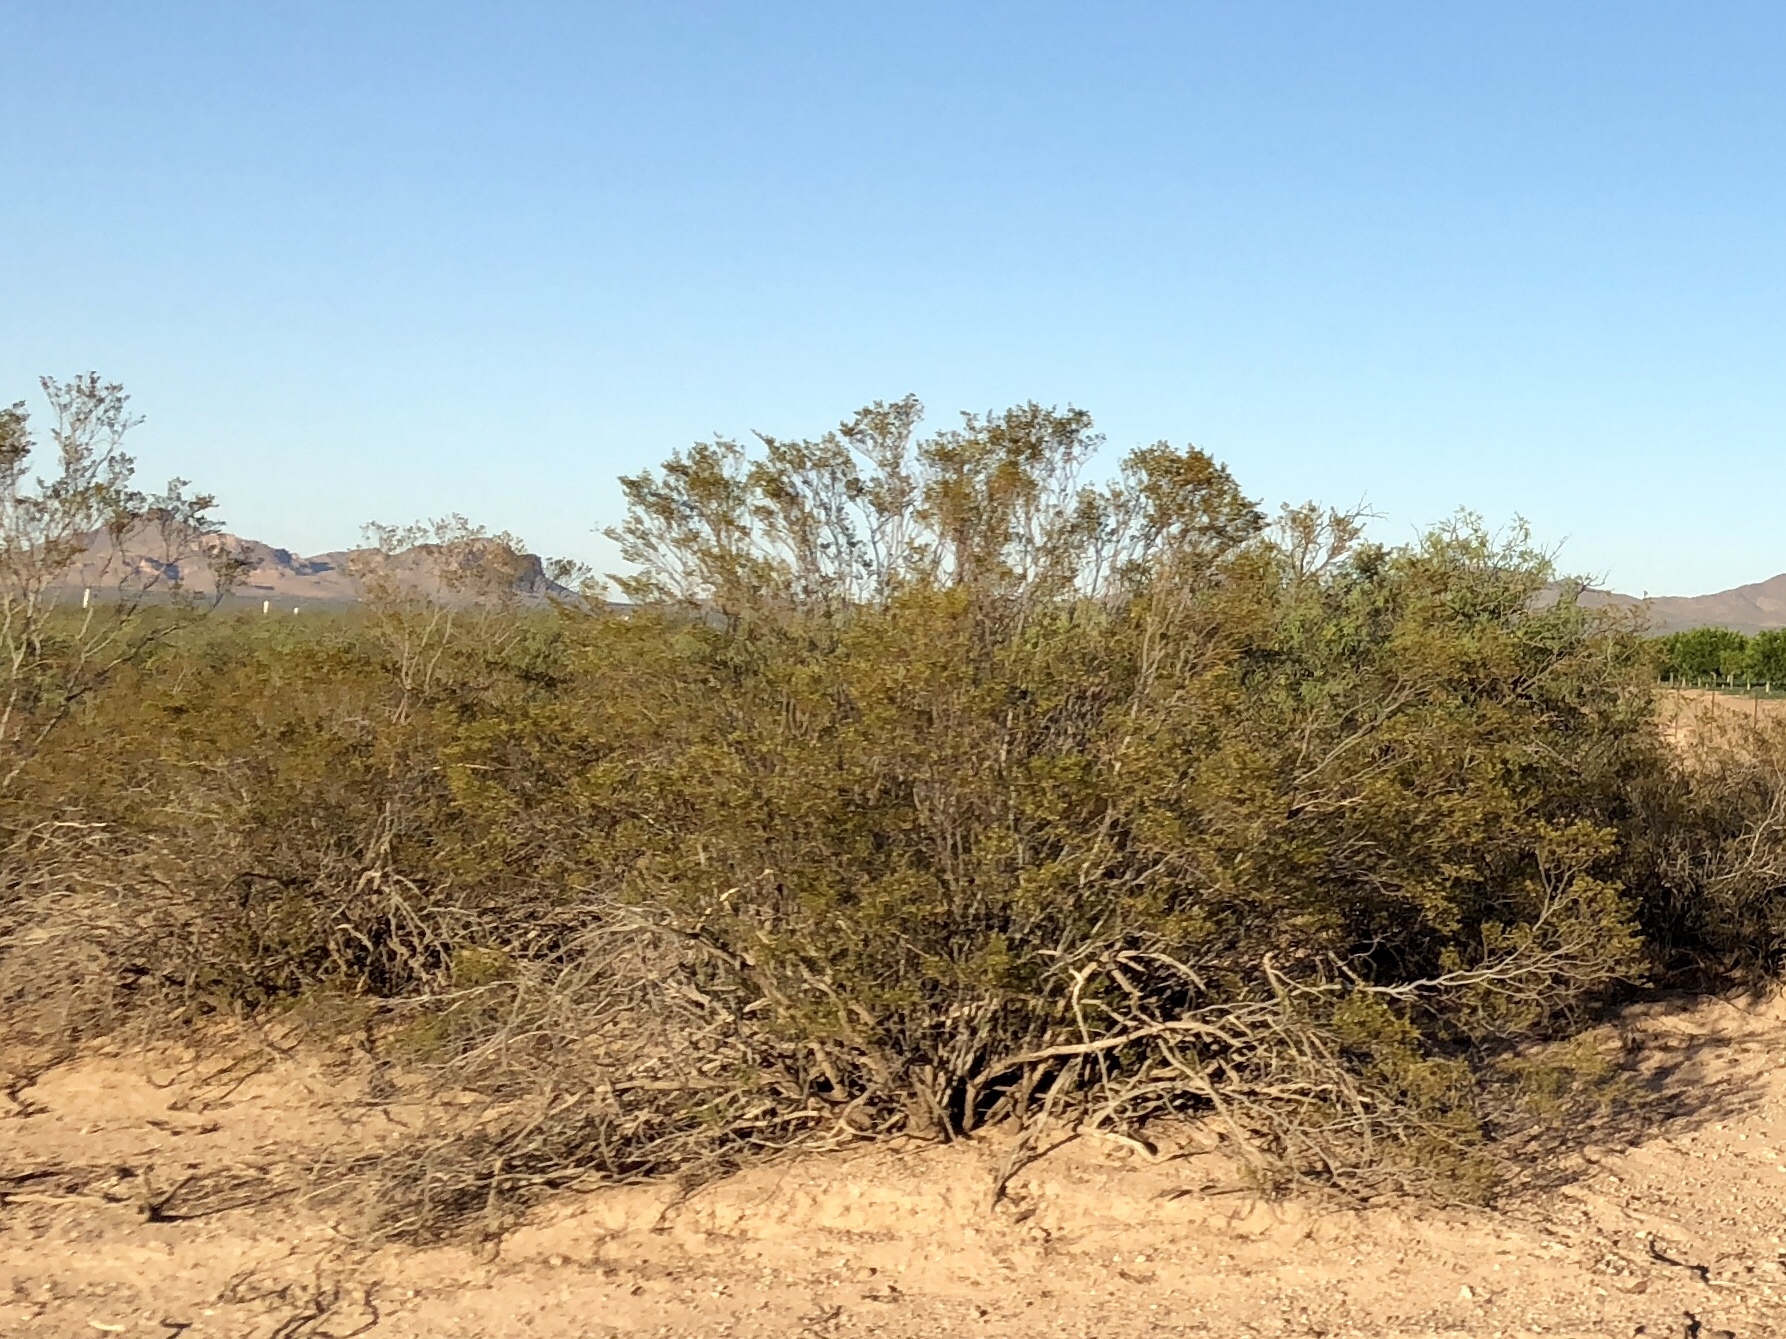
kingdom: Plantae
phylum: Tracheophyta
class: Magnoliopsida
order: Zygophyllales
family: Zygophyllaceae
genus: Larrea
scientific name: Larrea tridentata
